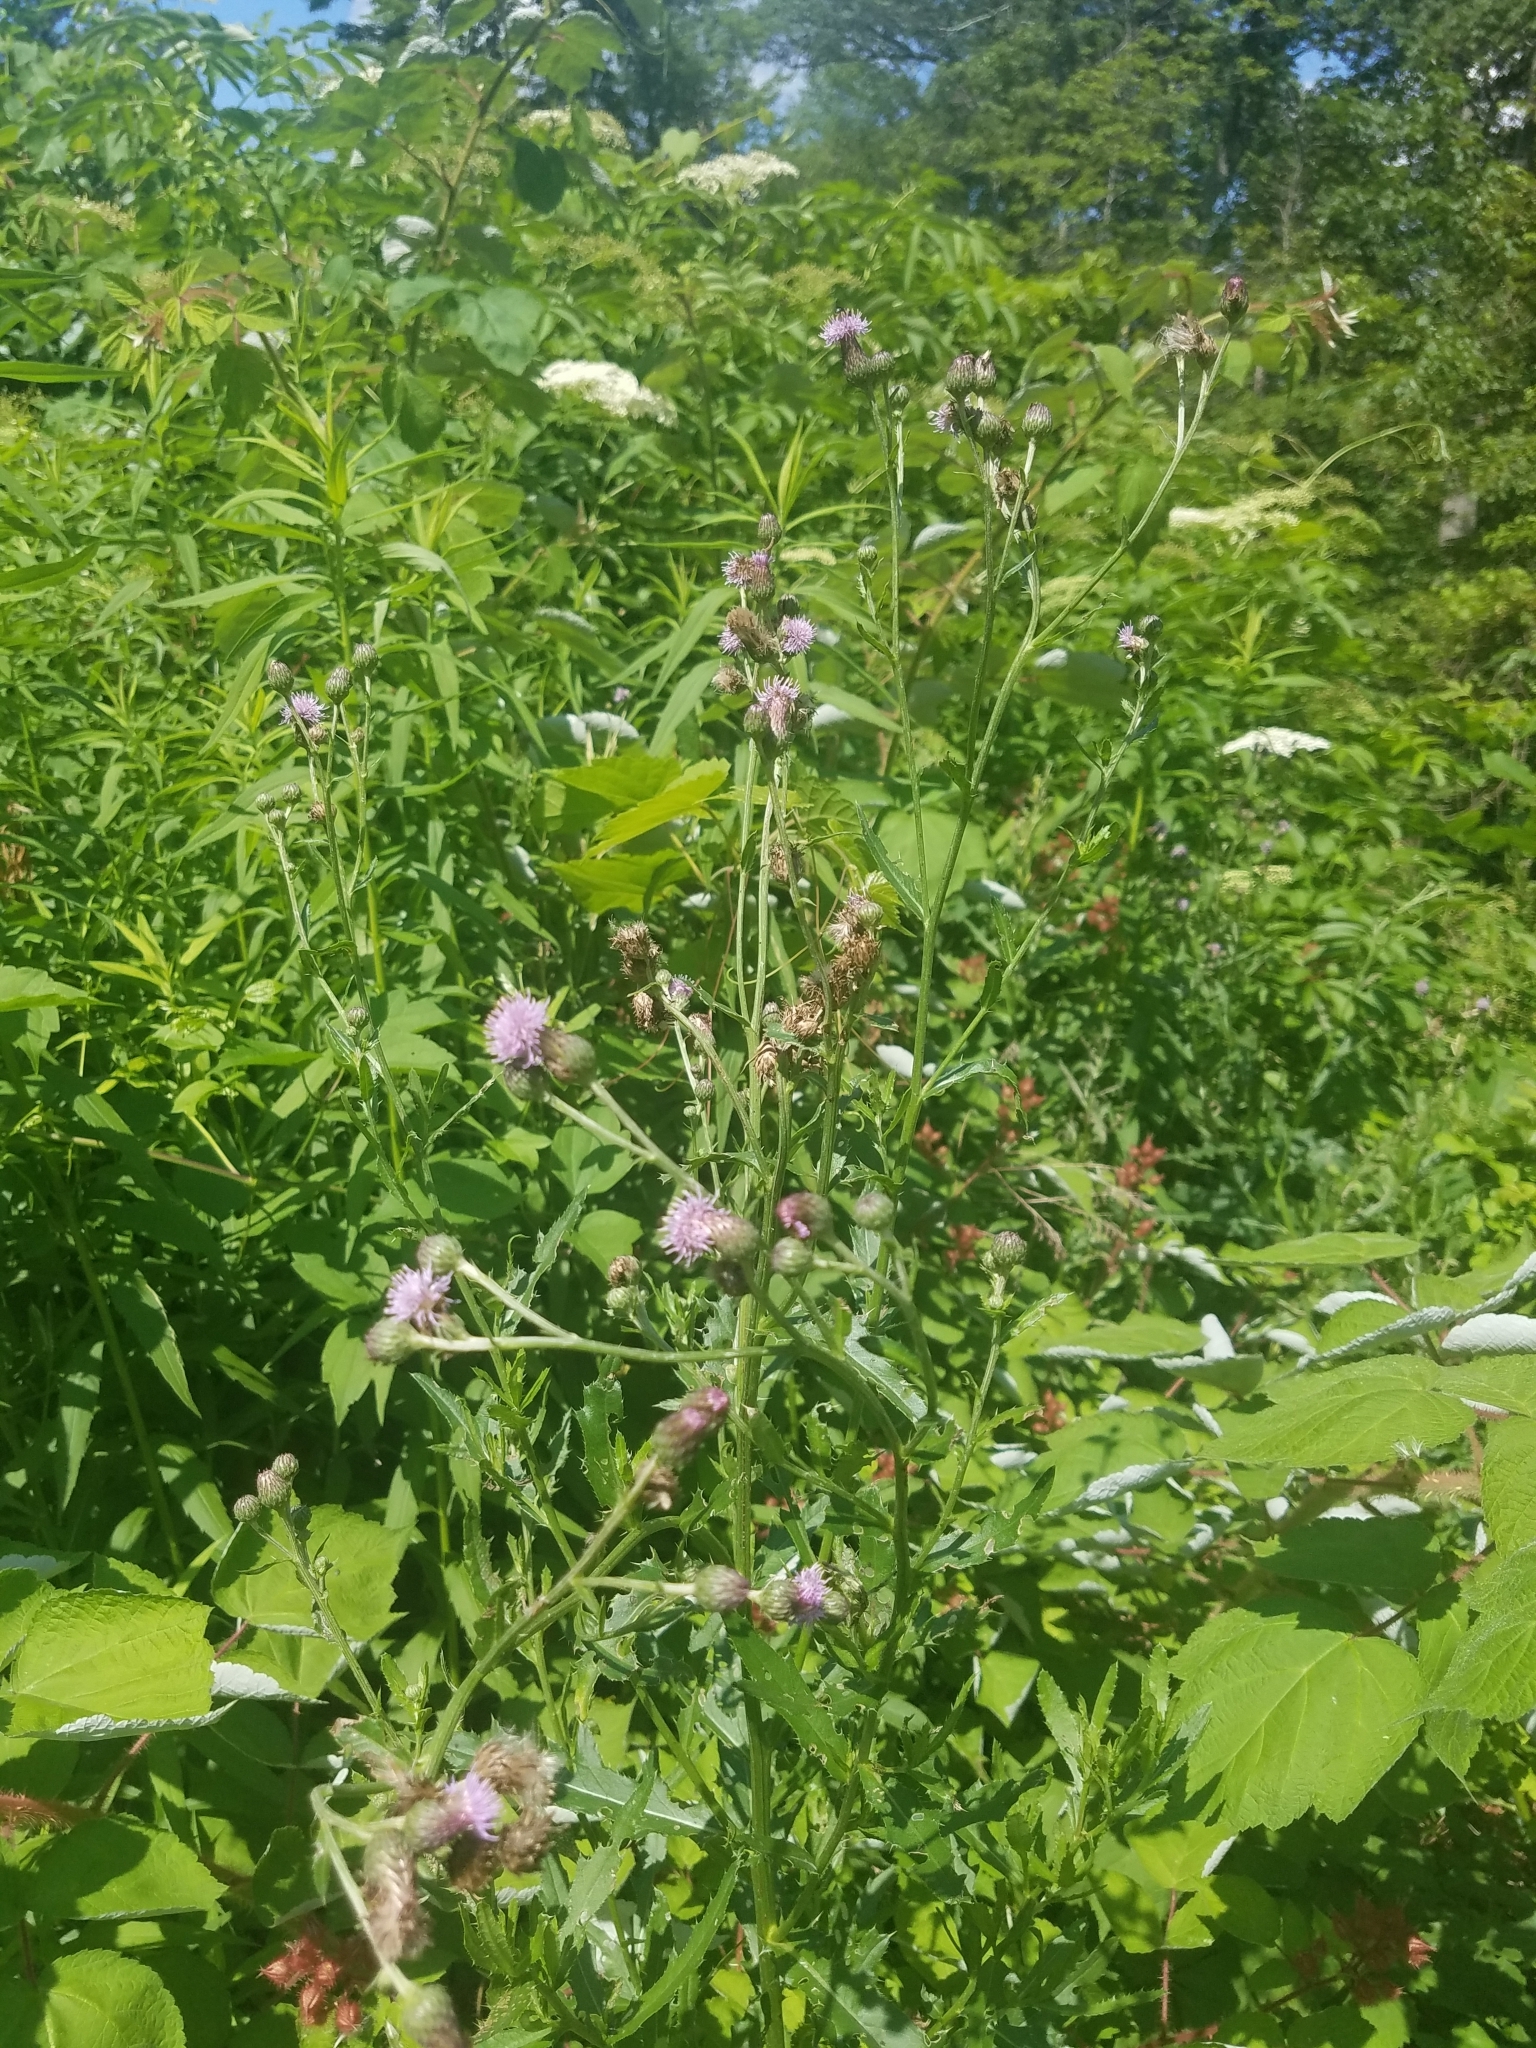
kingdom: Plantae
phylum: Tracheophyta
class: Magnoliopsida
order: Asterales
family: Asteraceae
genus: Cirsium
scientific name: Cirsium arvense
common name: Creeping thistle
